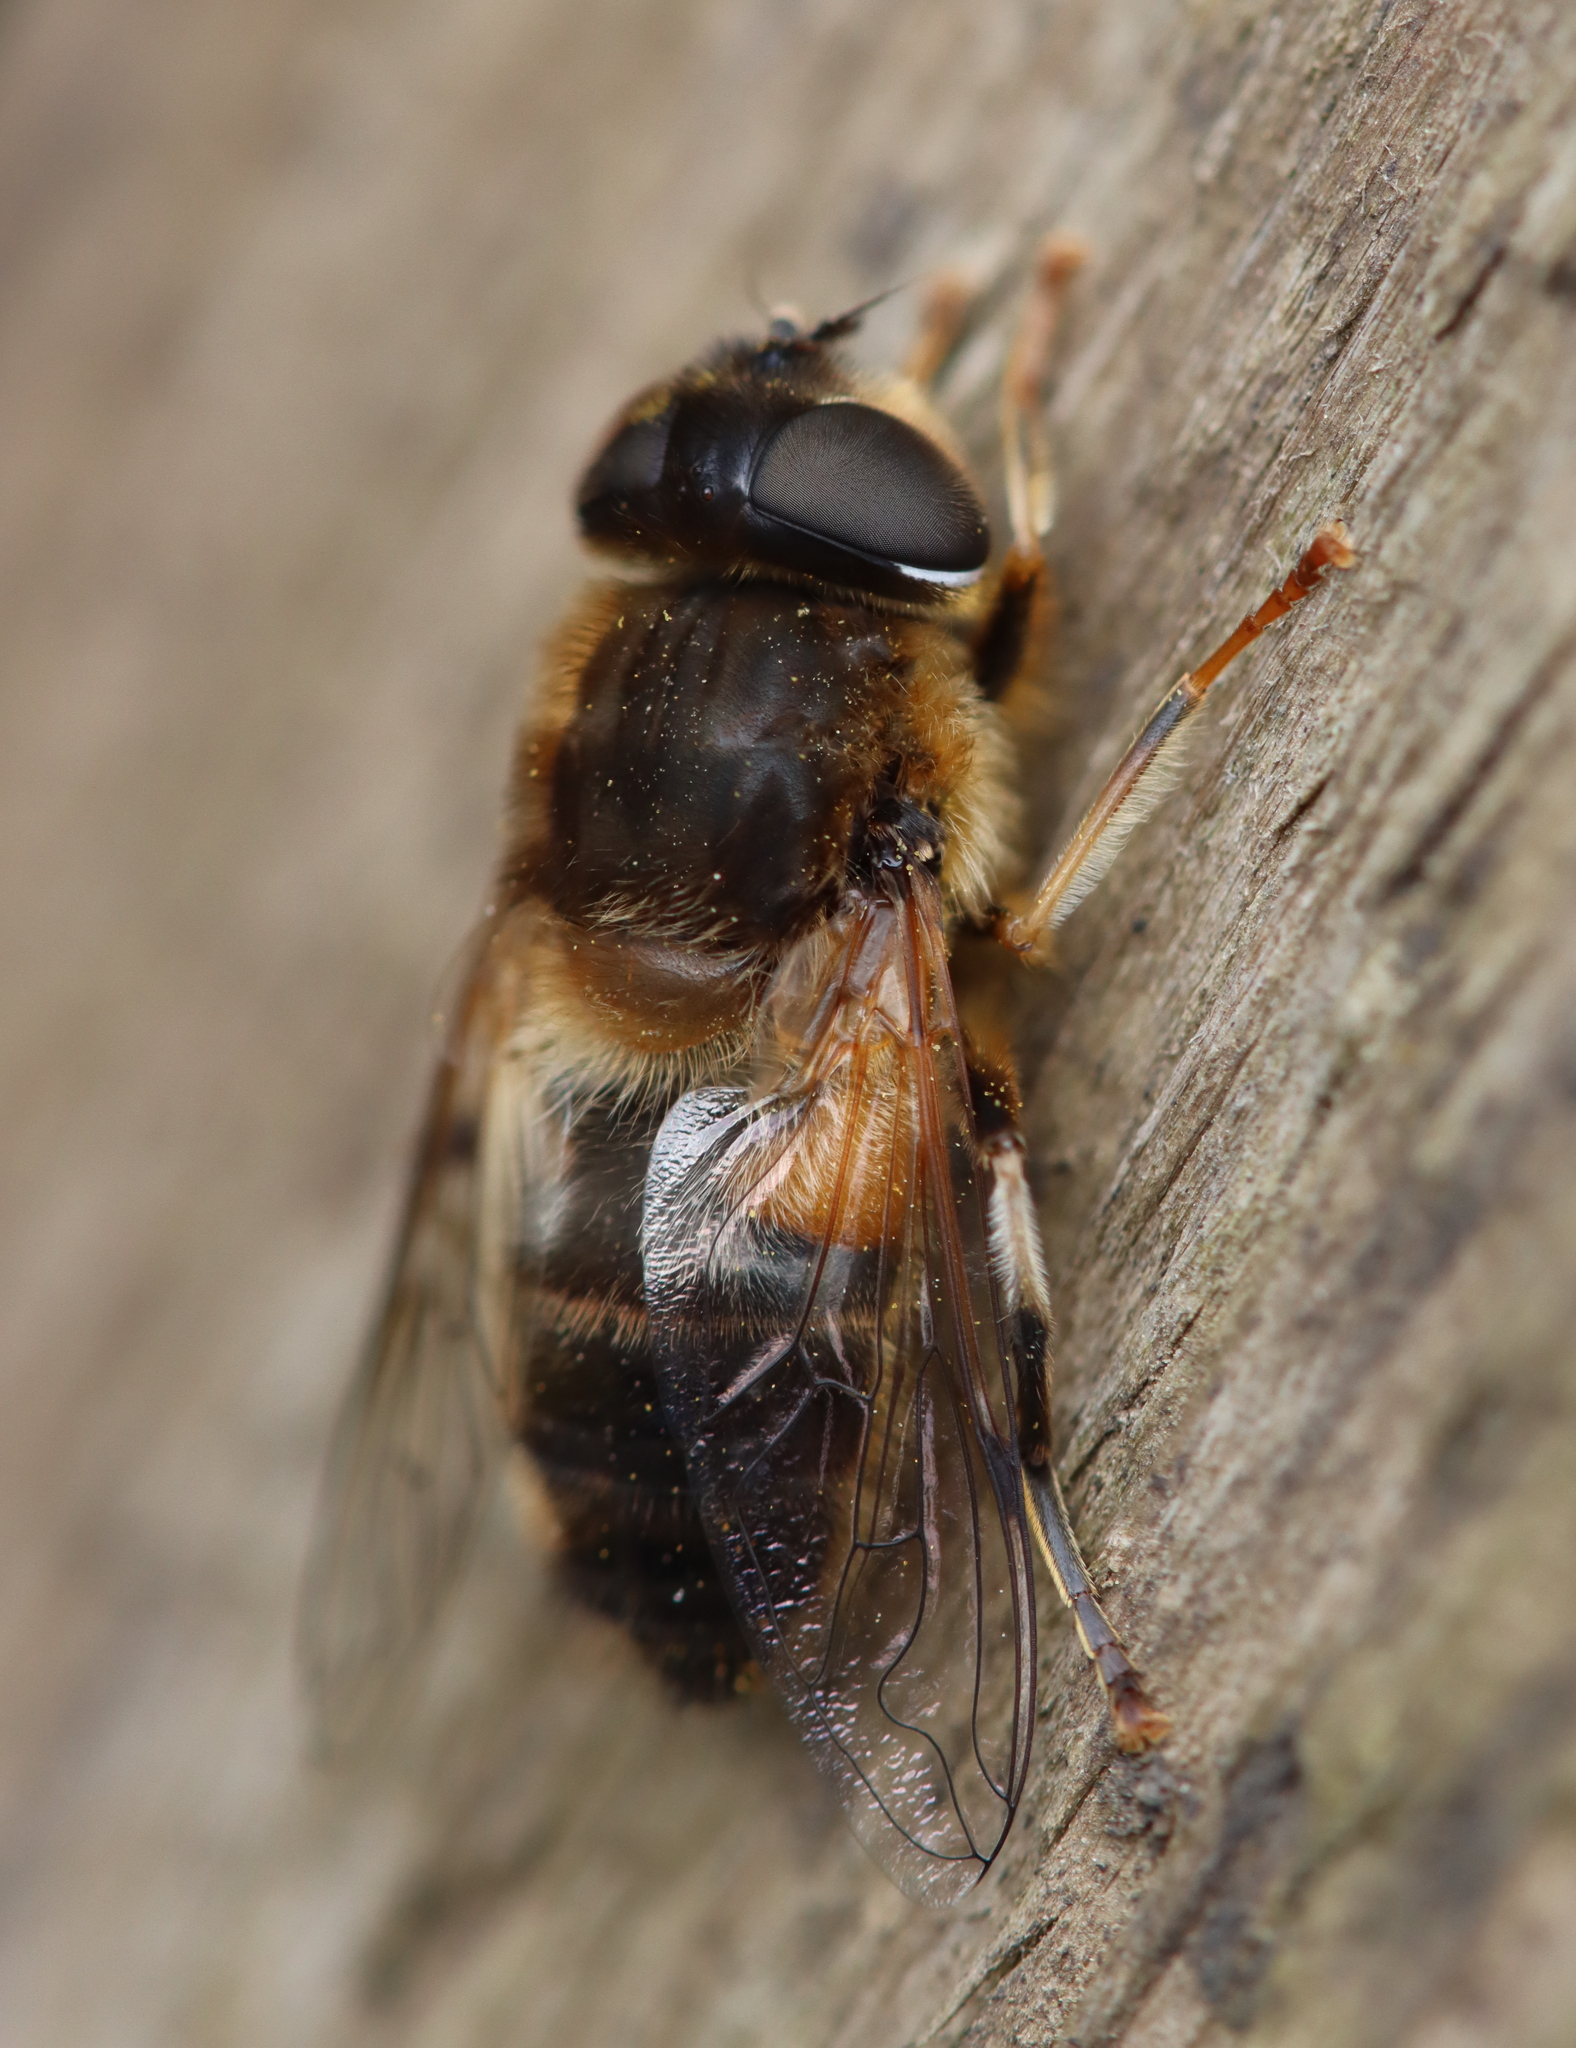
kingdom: Animalia
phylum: Arthropoda
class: Insecta
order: Diptera
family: Syrphidae
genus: Eristalis
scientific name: Eristalis pertinax
